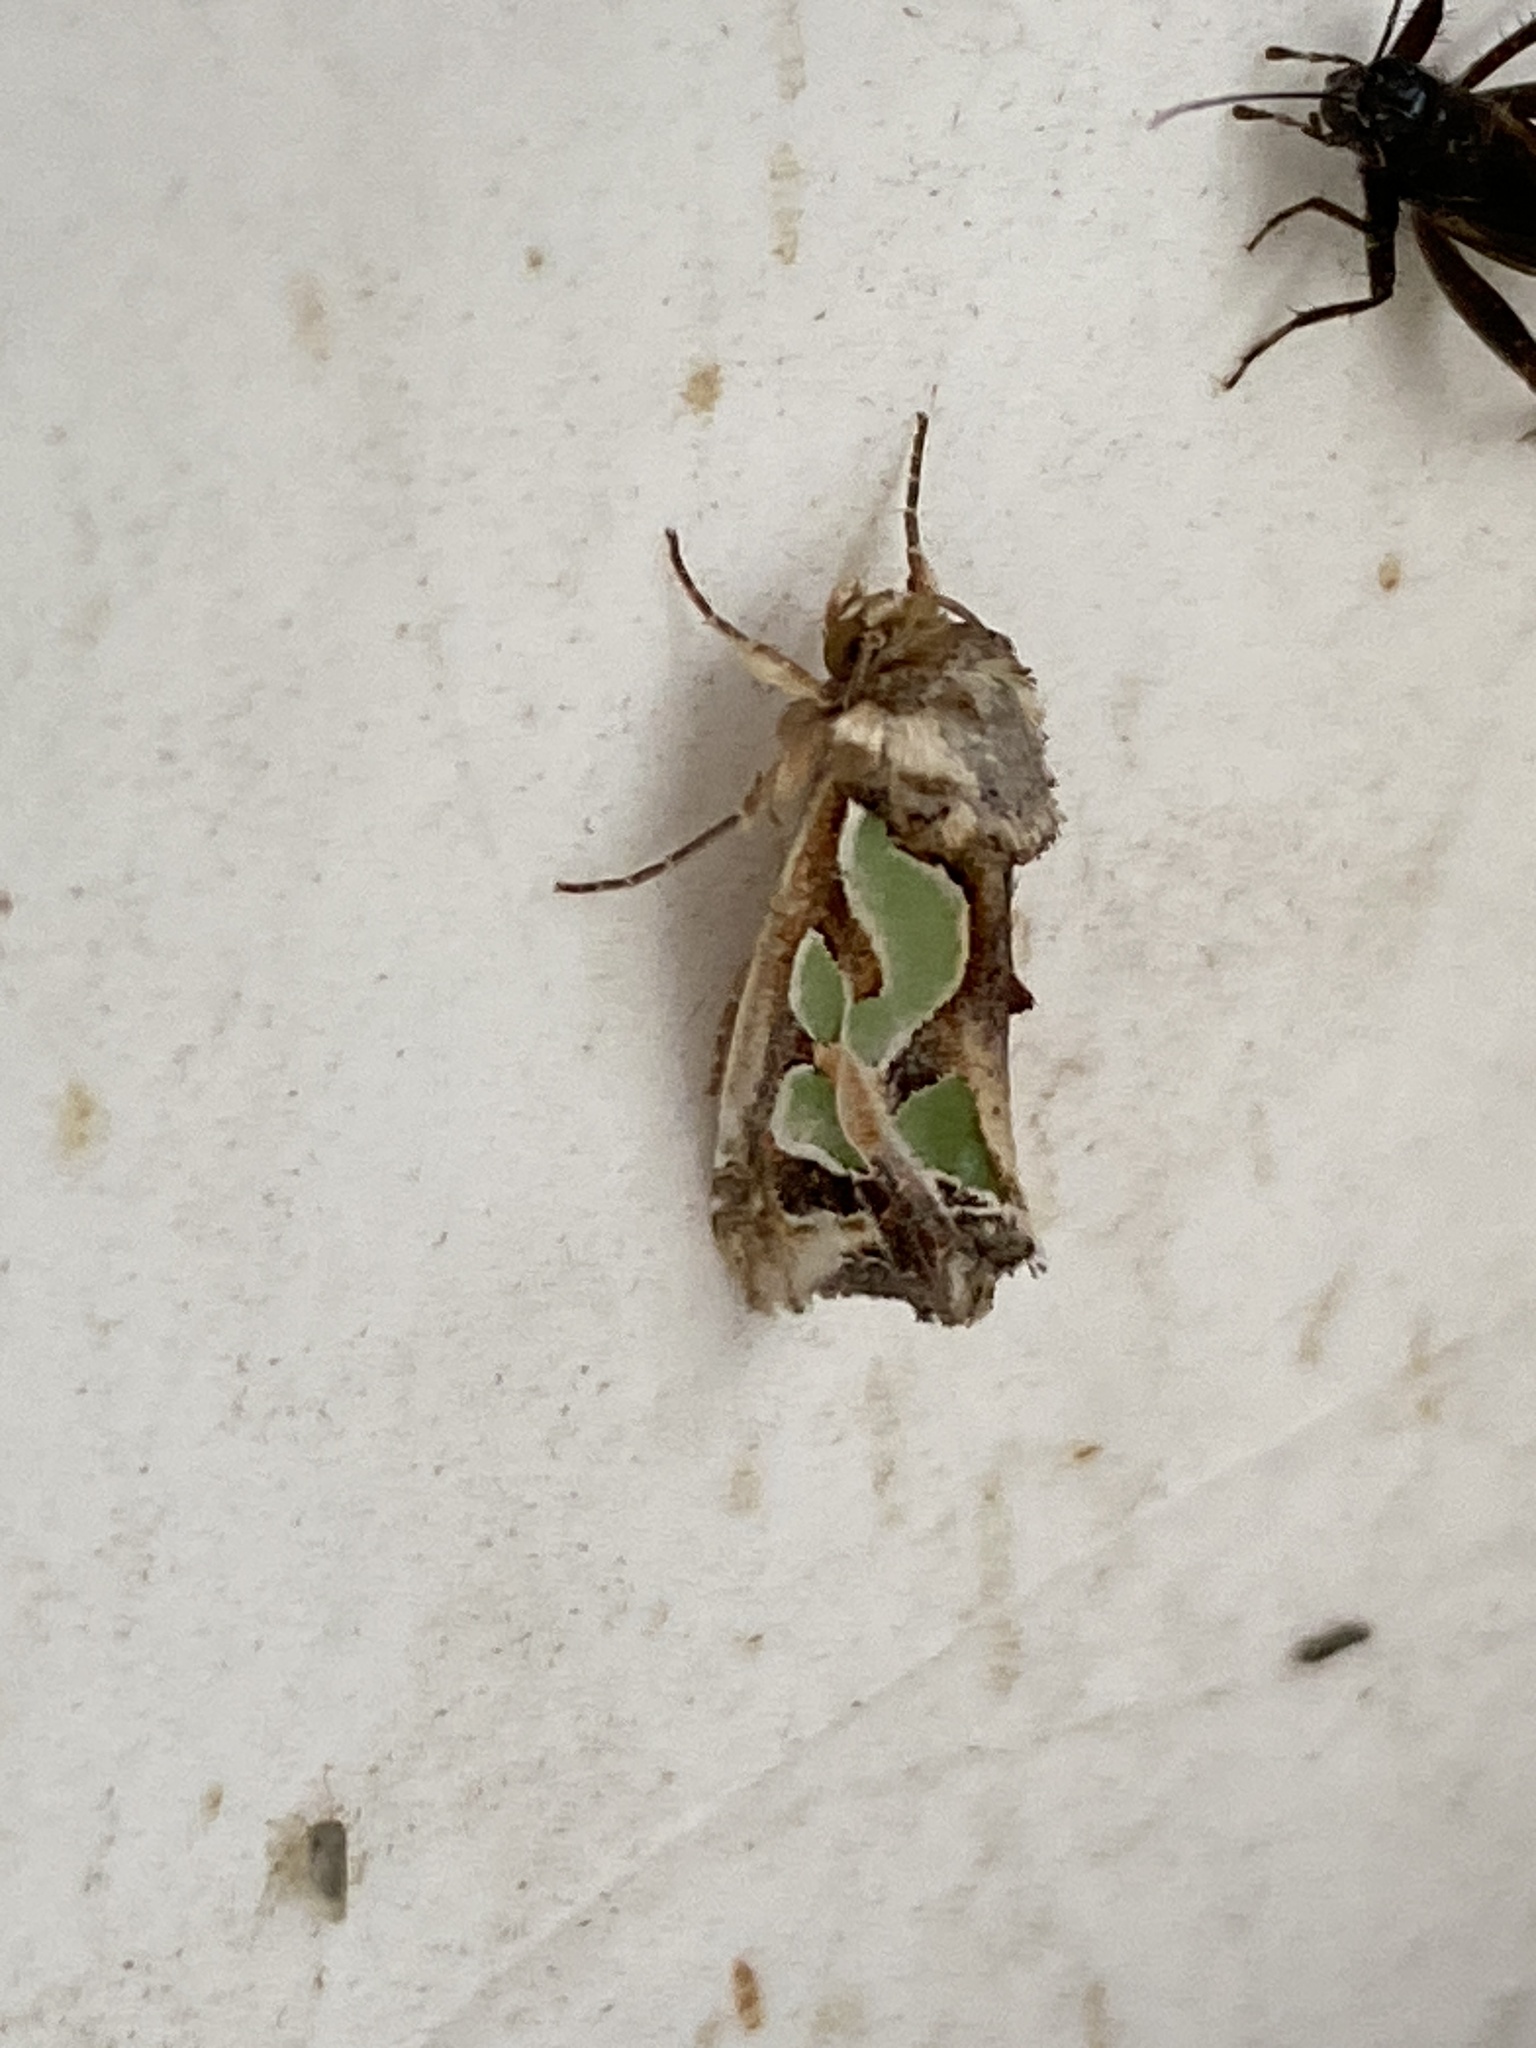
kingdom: Animalia
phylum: Arthropoda
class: Insecta
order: Lepidoptera
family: Noctuidae
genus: Cosmodes
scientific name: Cosmodes elegans
